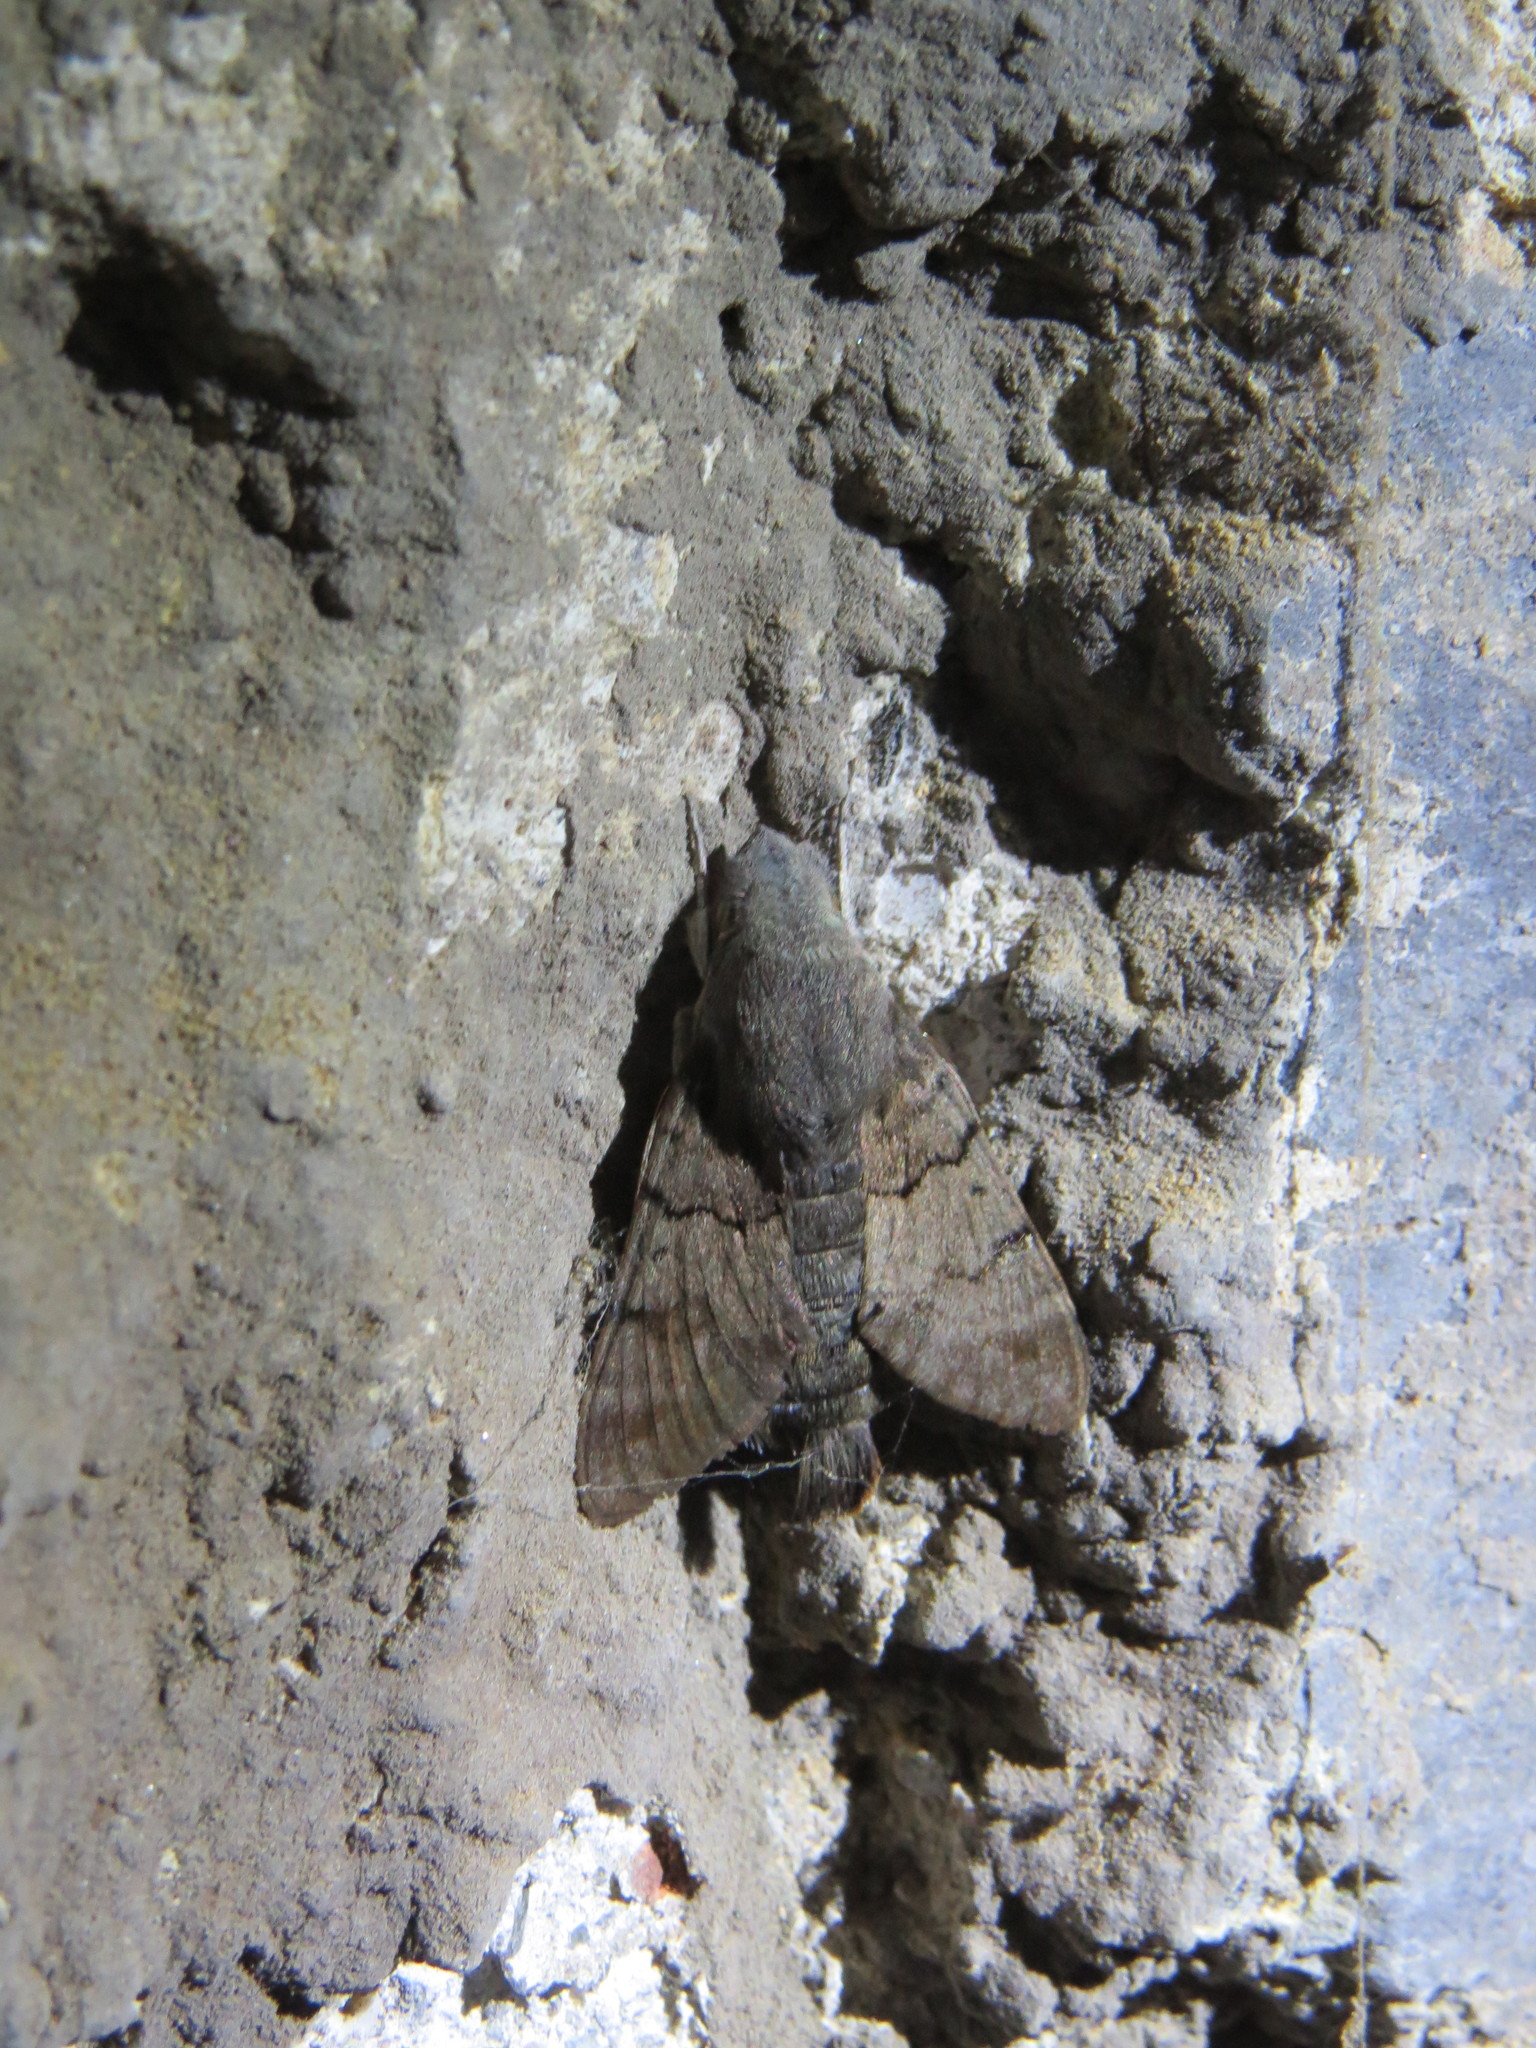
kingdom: Animalia
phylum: Arthropoda
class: Insecta
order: Lepidoptera
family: Sphingidae
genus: Macroglossum
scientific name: Macroglossum stellatarum
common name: Humming-bird hawk-moth
